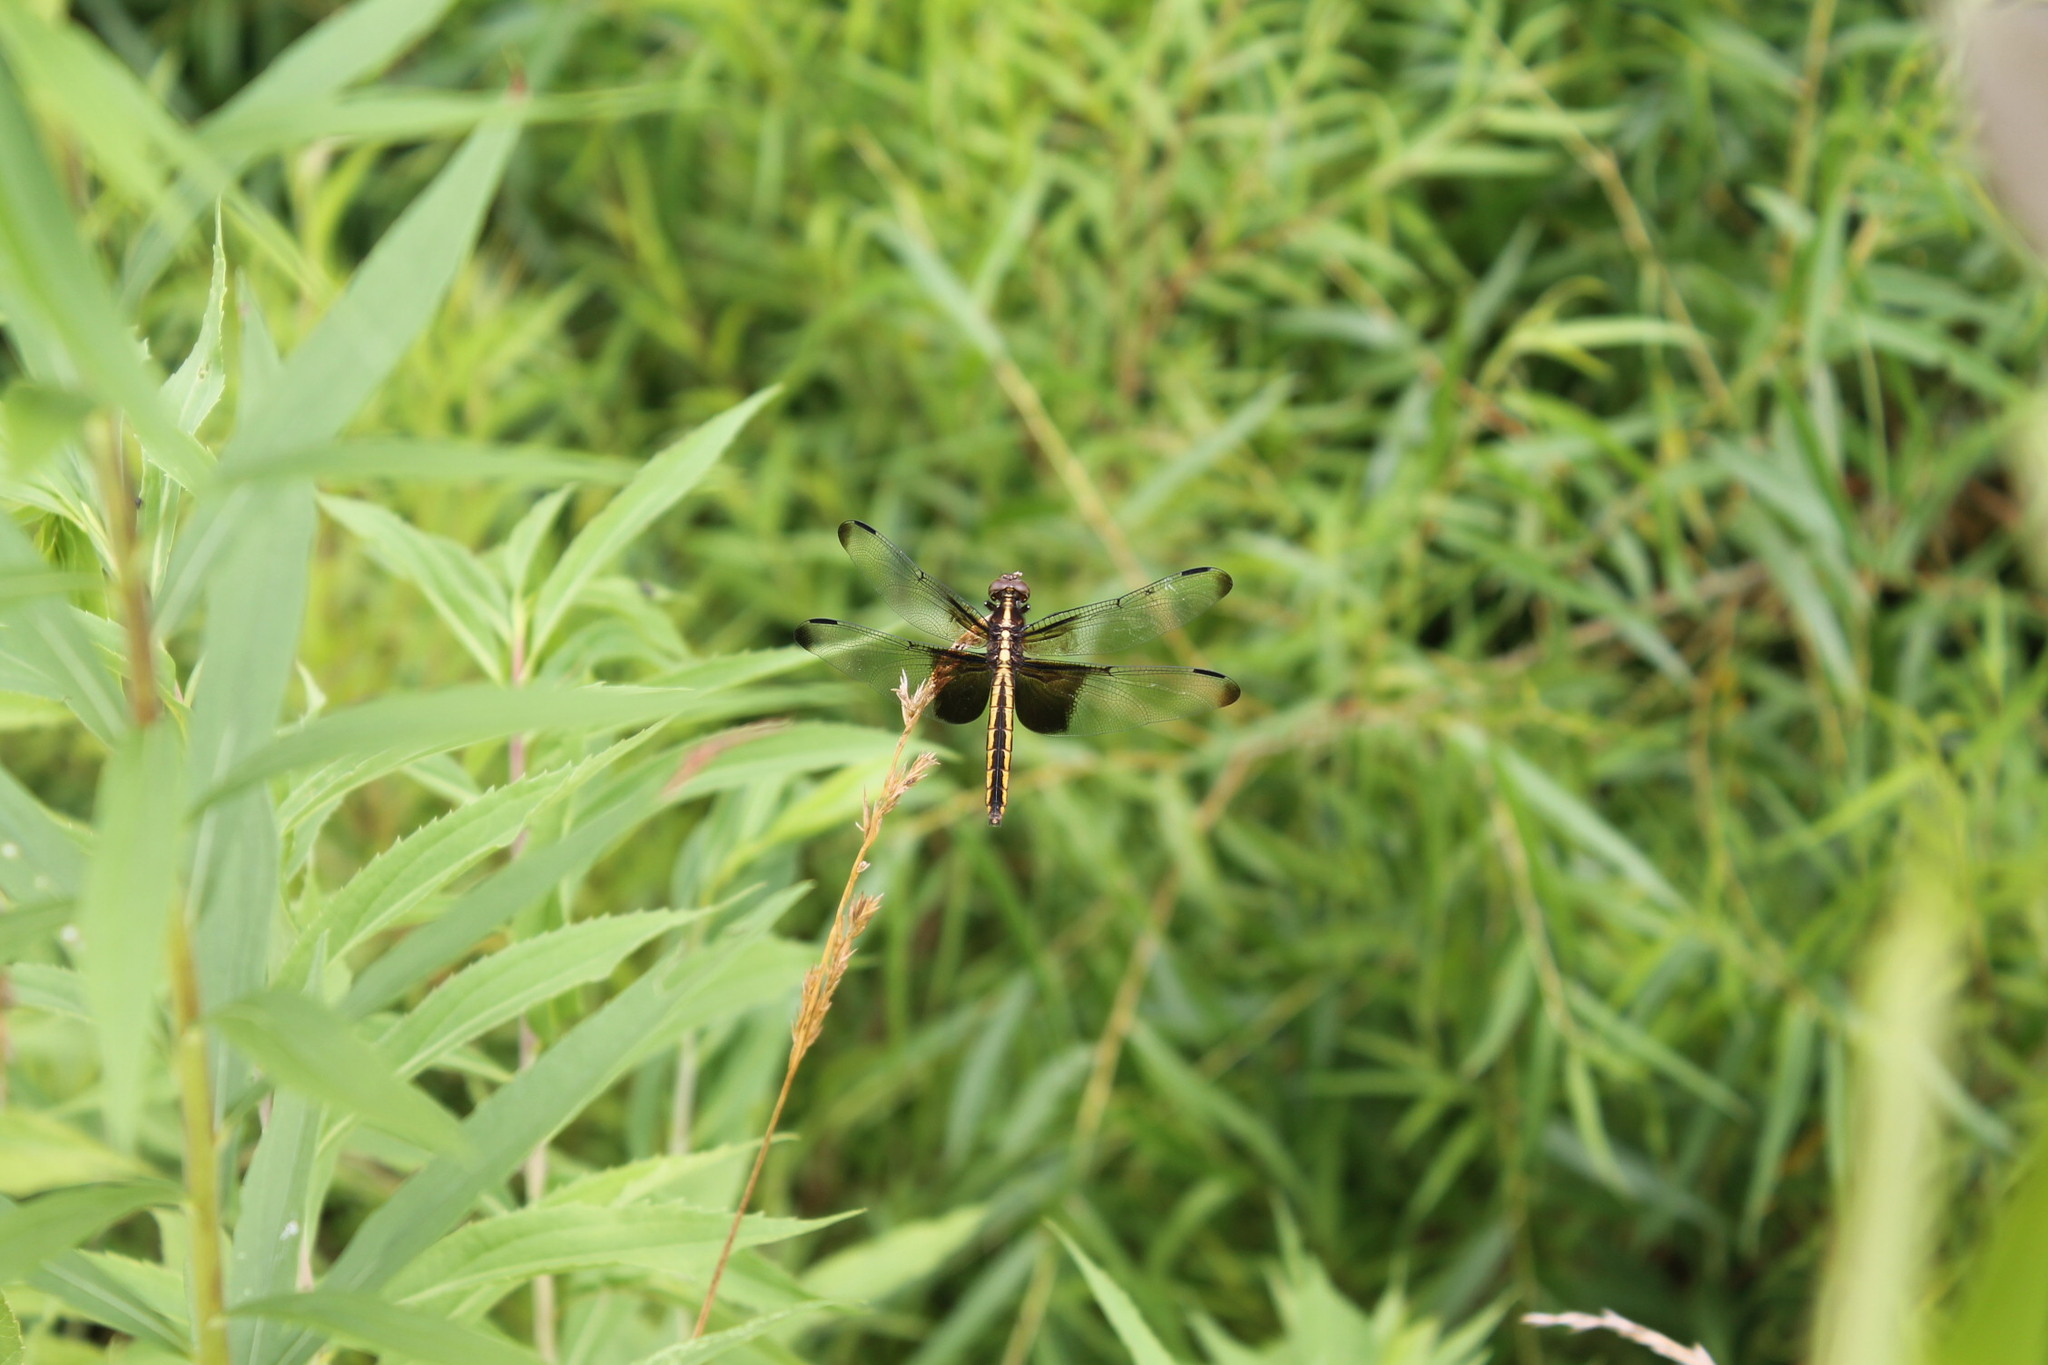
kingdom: Animalia
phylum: Arthropoda
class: Insecta
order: Odonata
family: Libellulidae
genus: Libellula
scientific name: Libellula luctuosa
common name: Widow skimmer
